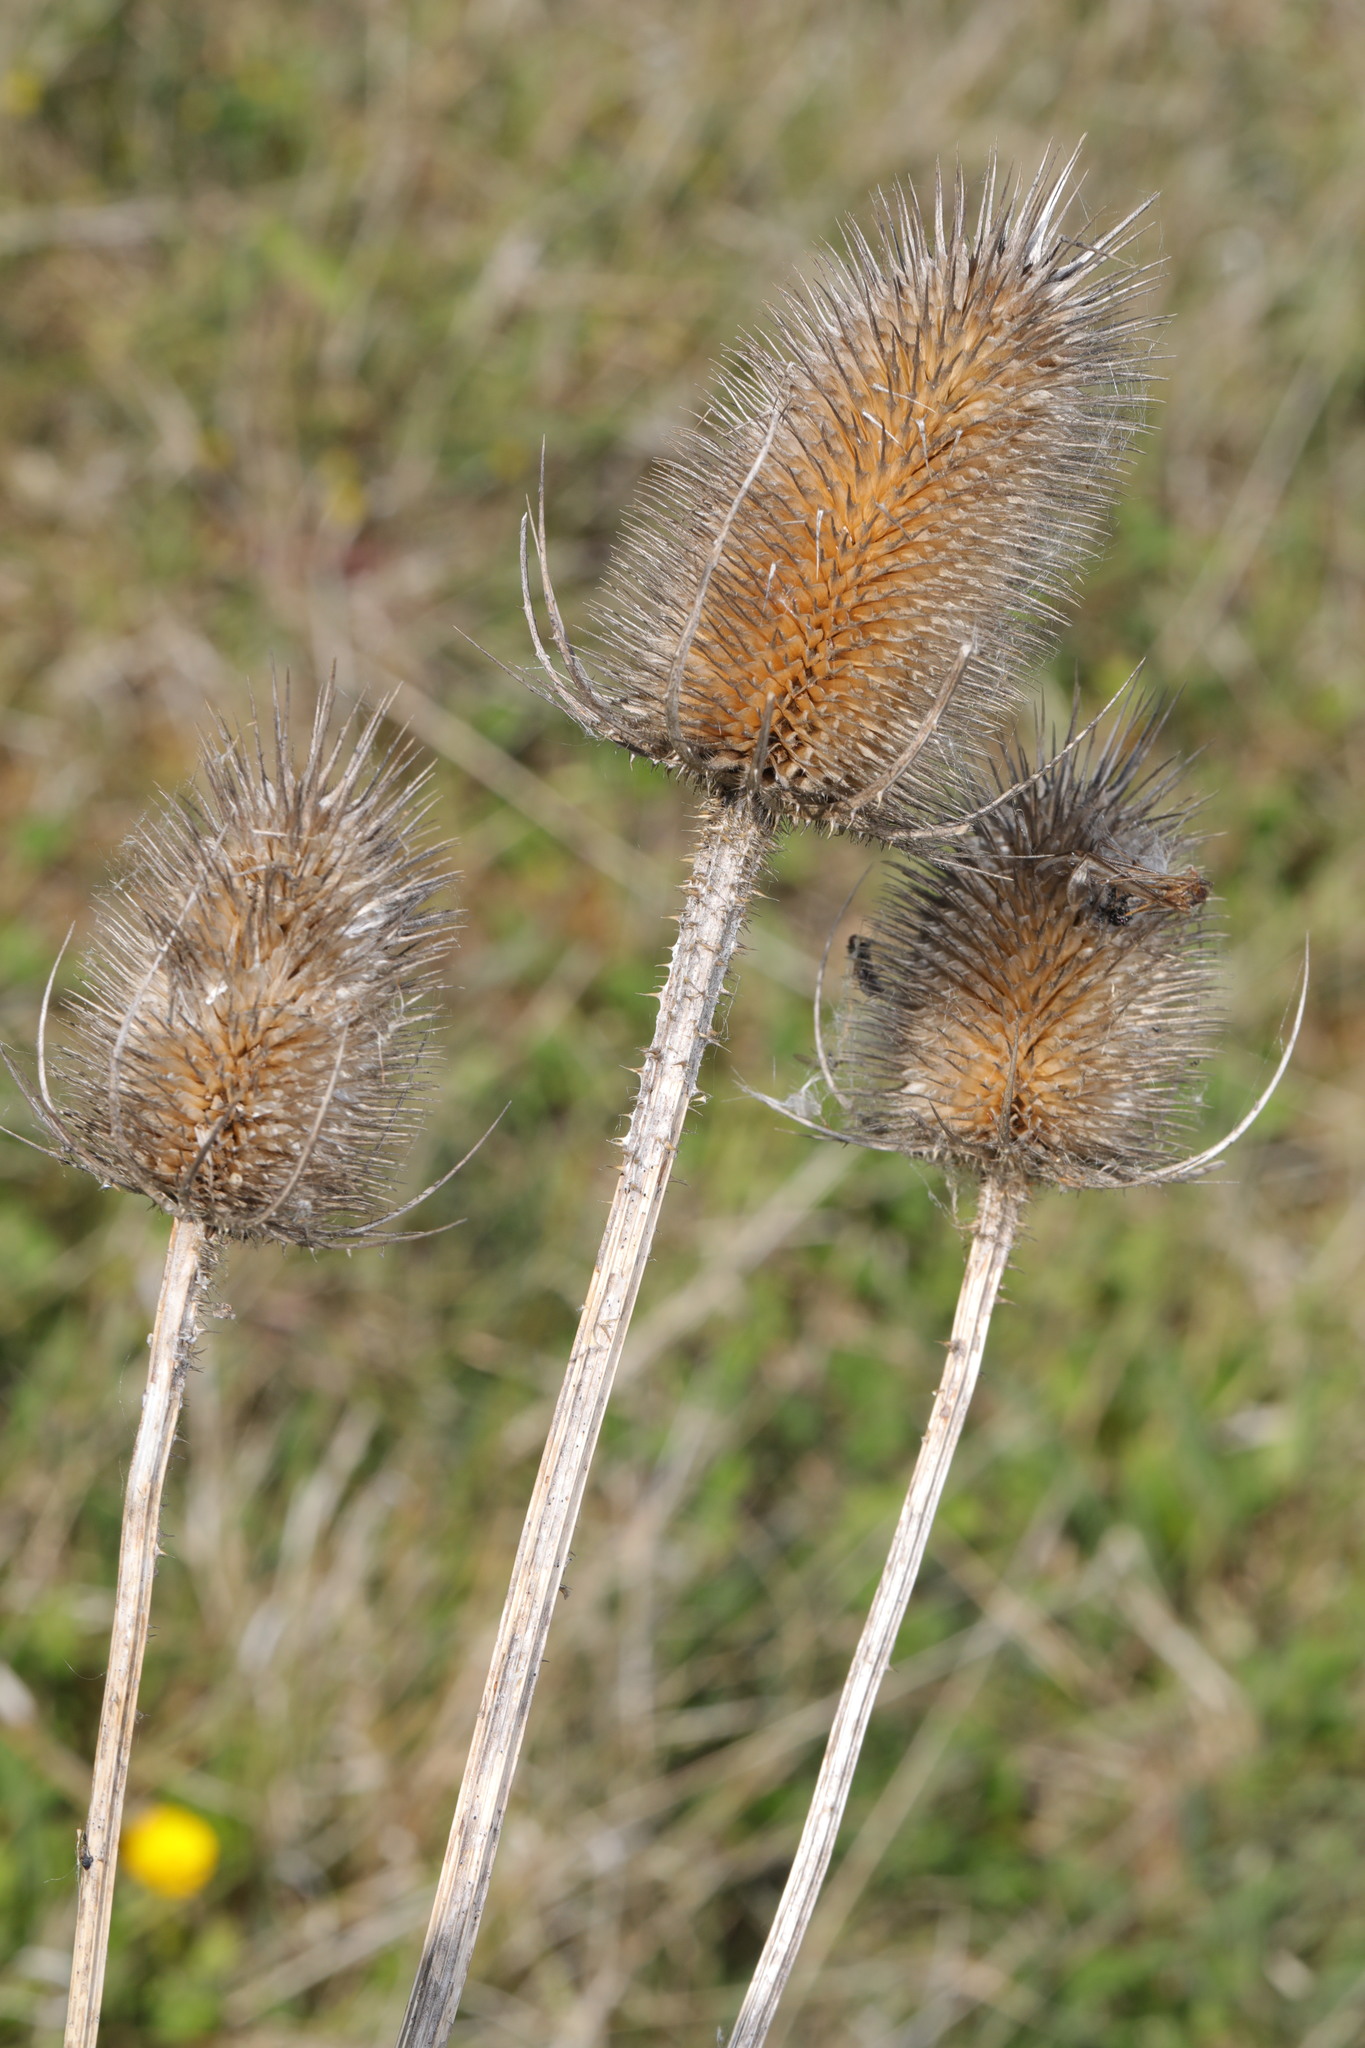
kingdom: Plantae
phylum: Tracheophyta
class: Magnoliopsida
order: Dipsacales
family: Caprifoliaceae
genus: Dipsacus
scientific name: Dipsacus fullonum
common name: Teasel
